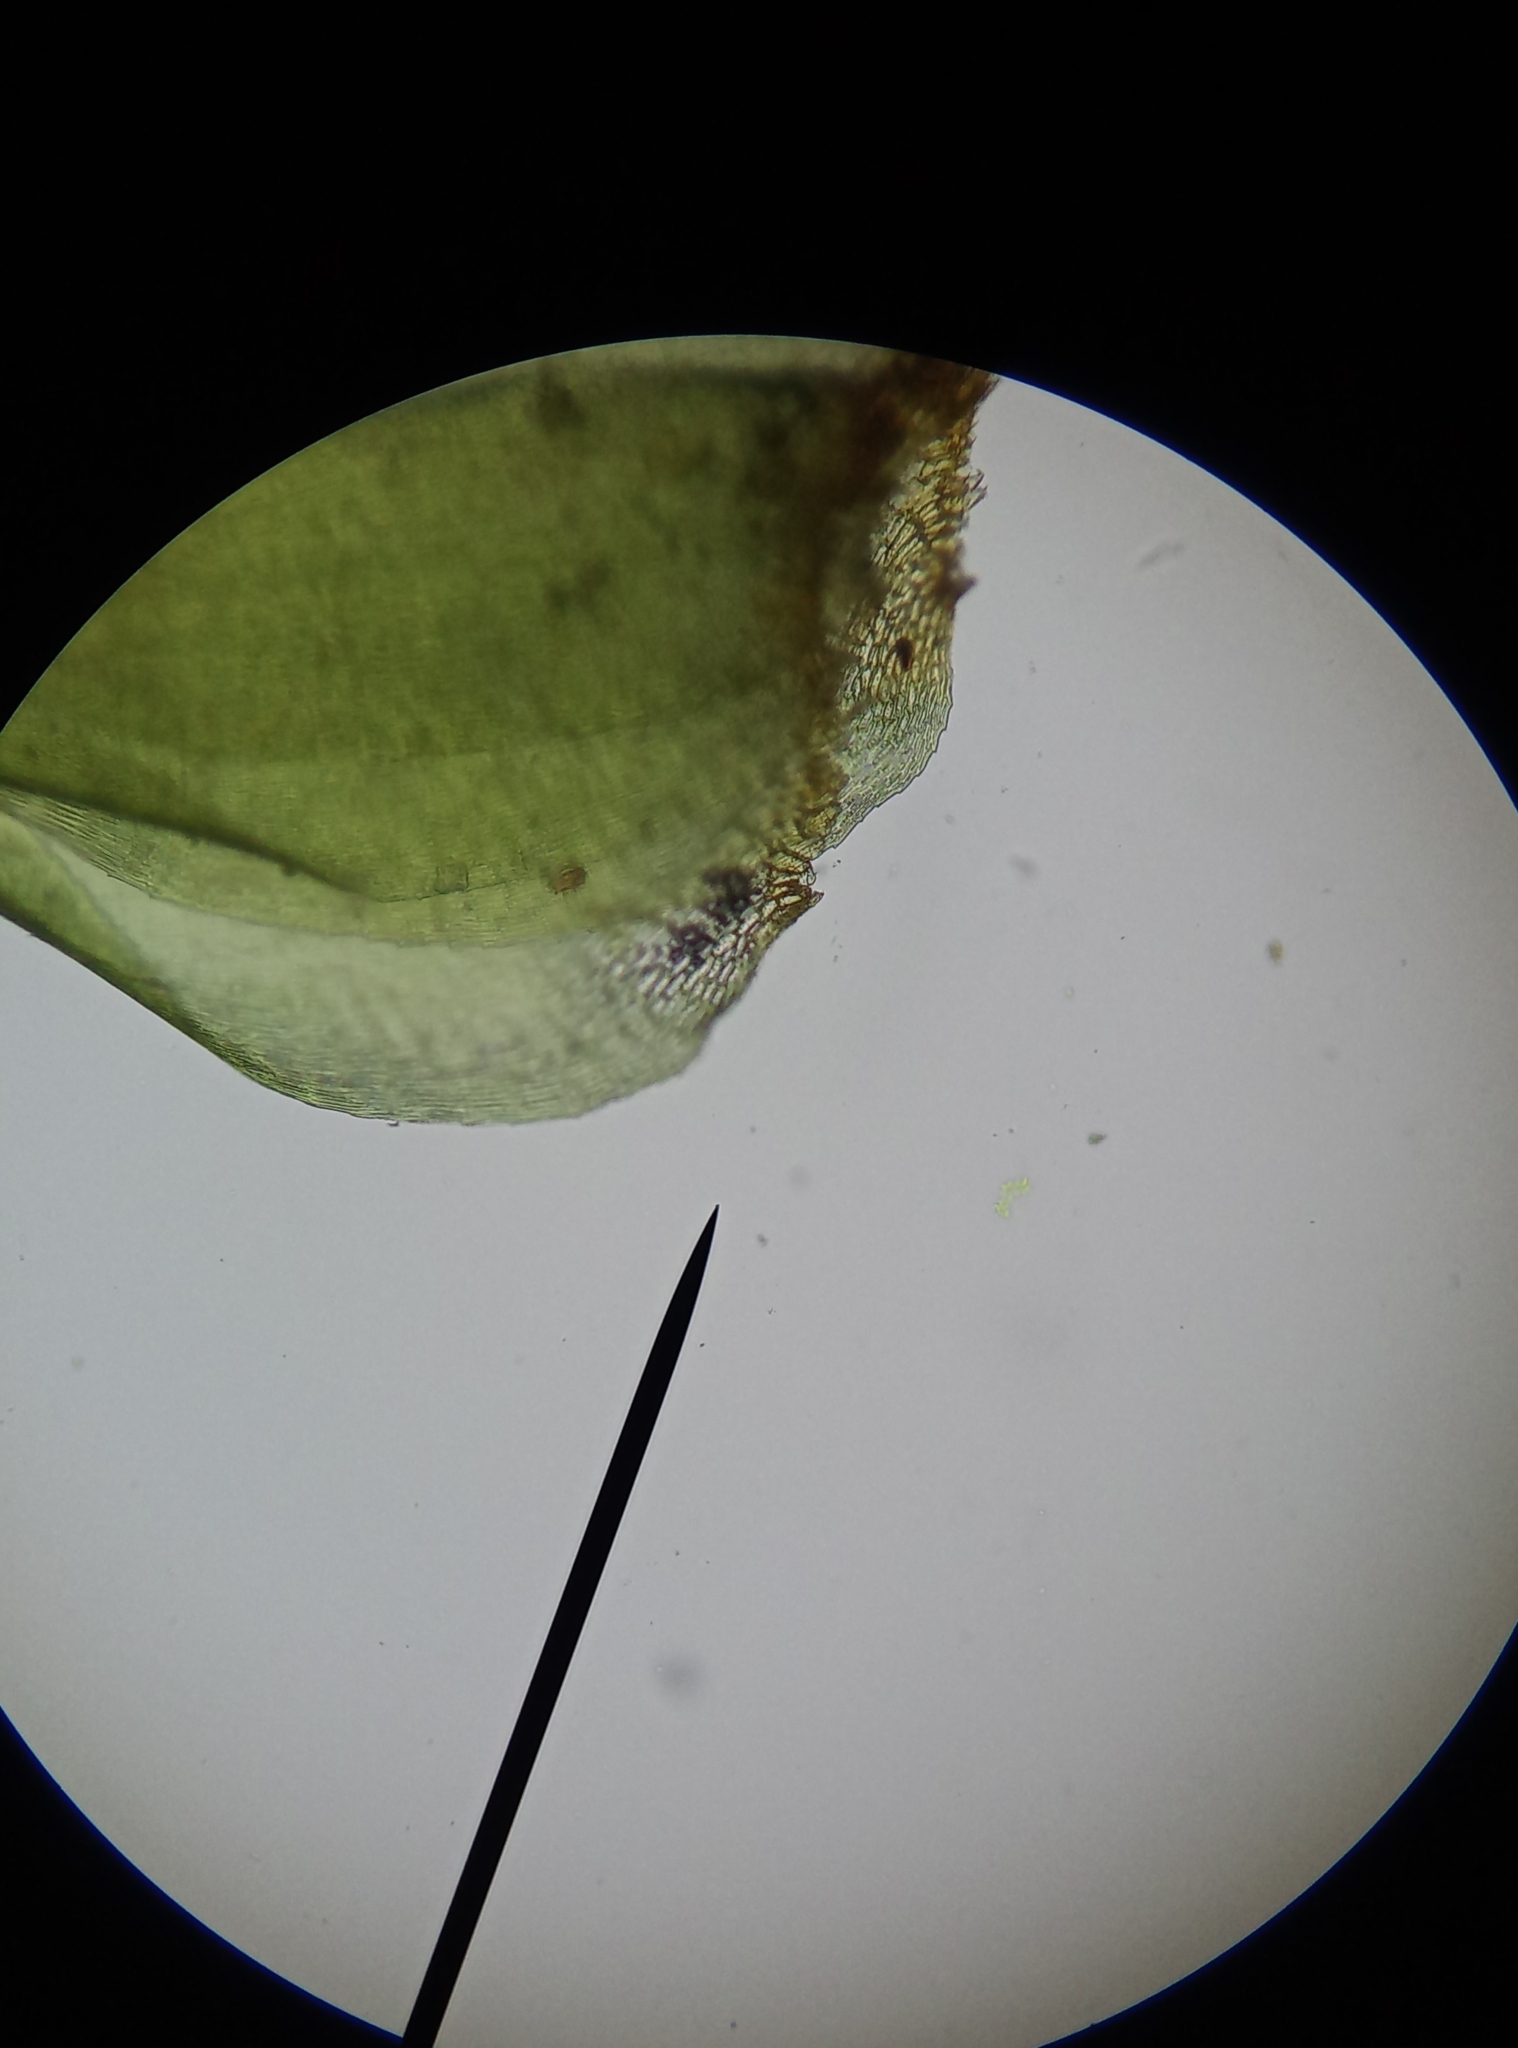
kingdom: Plantae
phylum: Bryophyta
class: Bryopsida
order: Hypnales
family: Hylocomiaceae
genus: Rhytidiadelphus
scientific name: Rhytidiadelphus squarrosus
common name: Springy turf-moss
